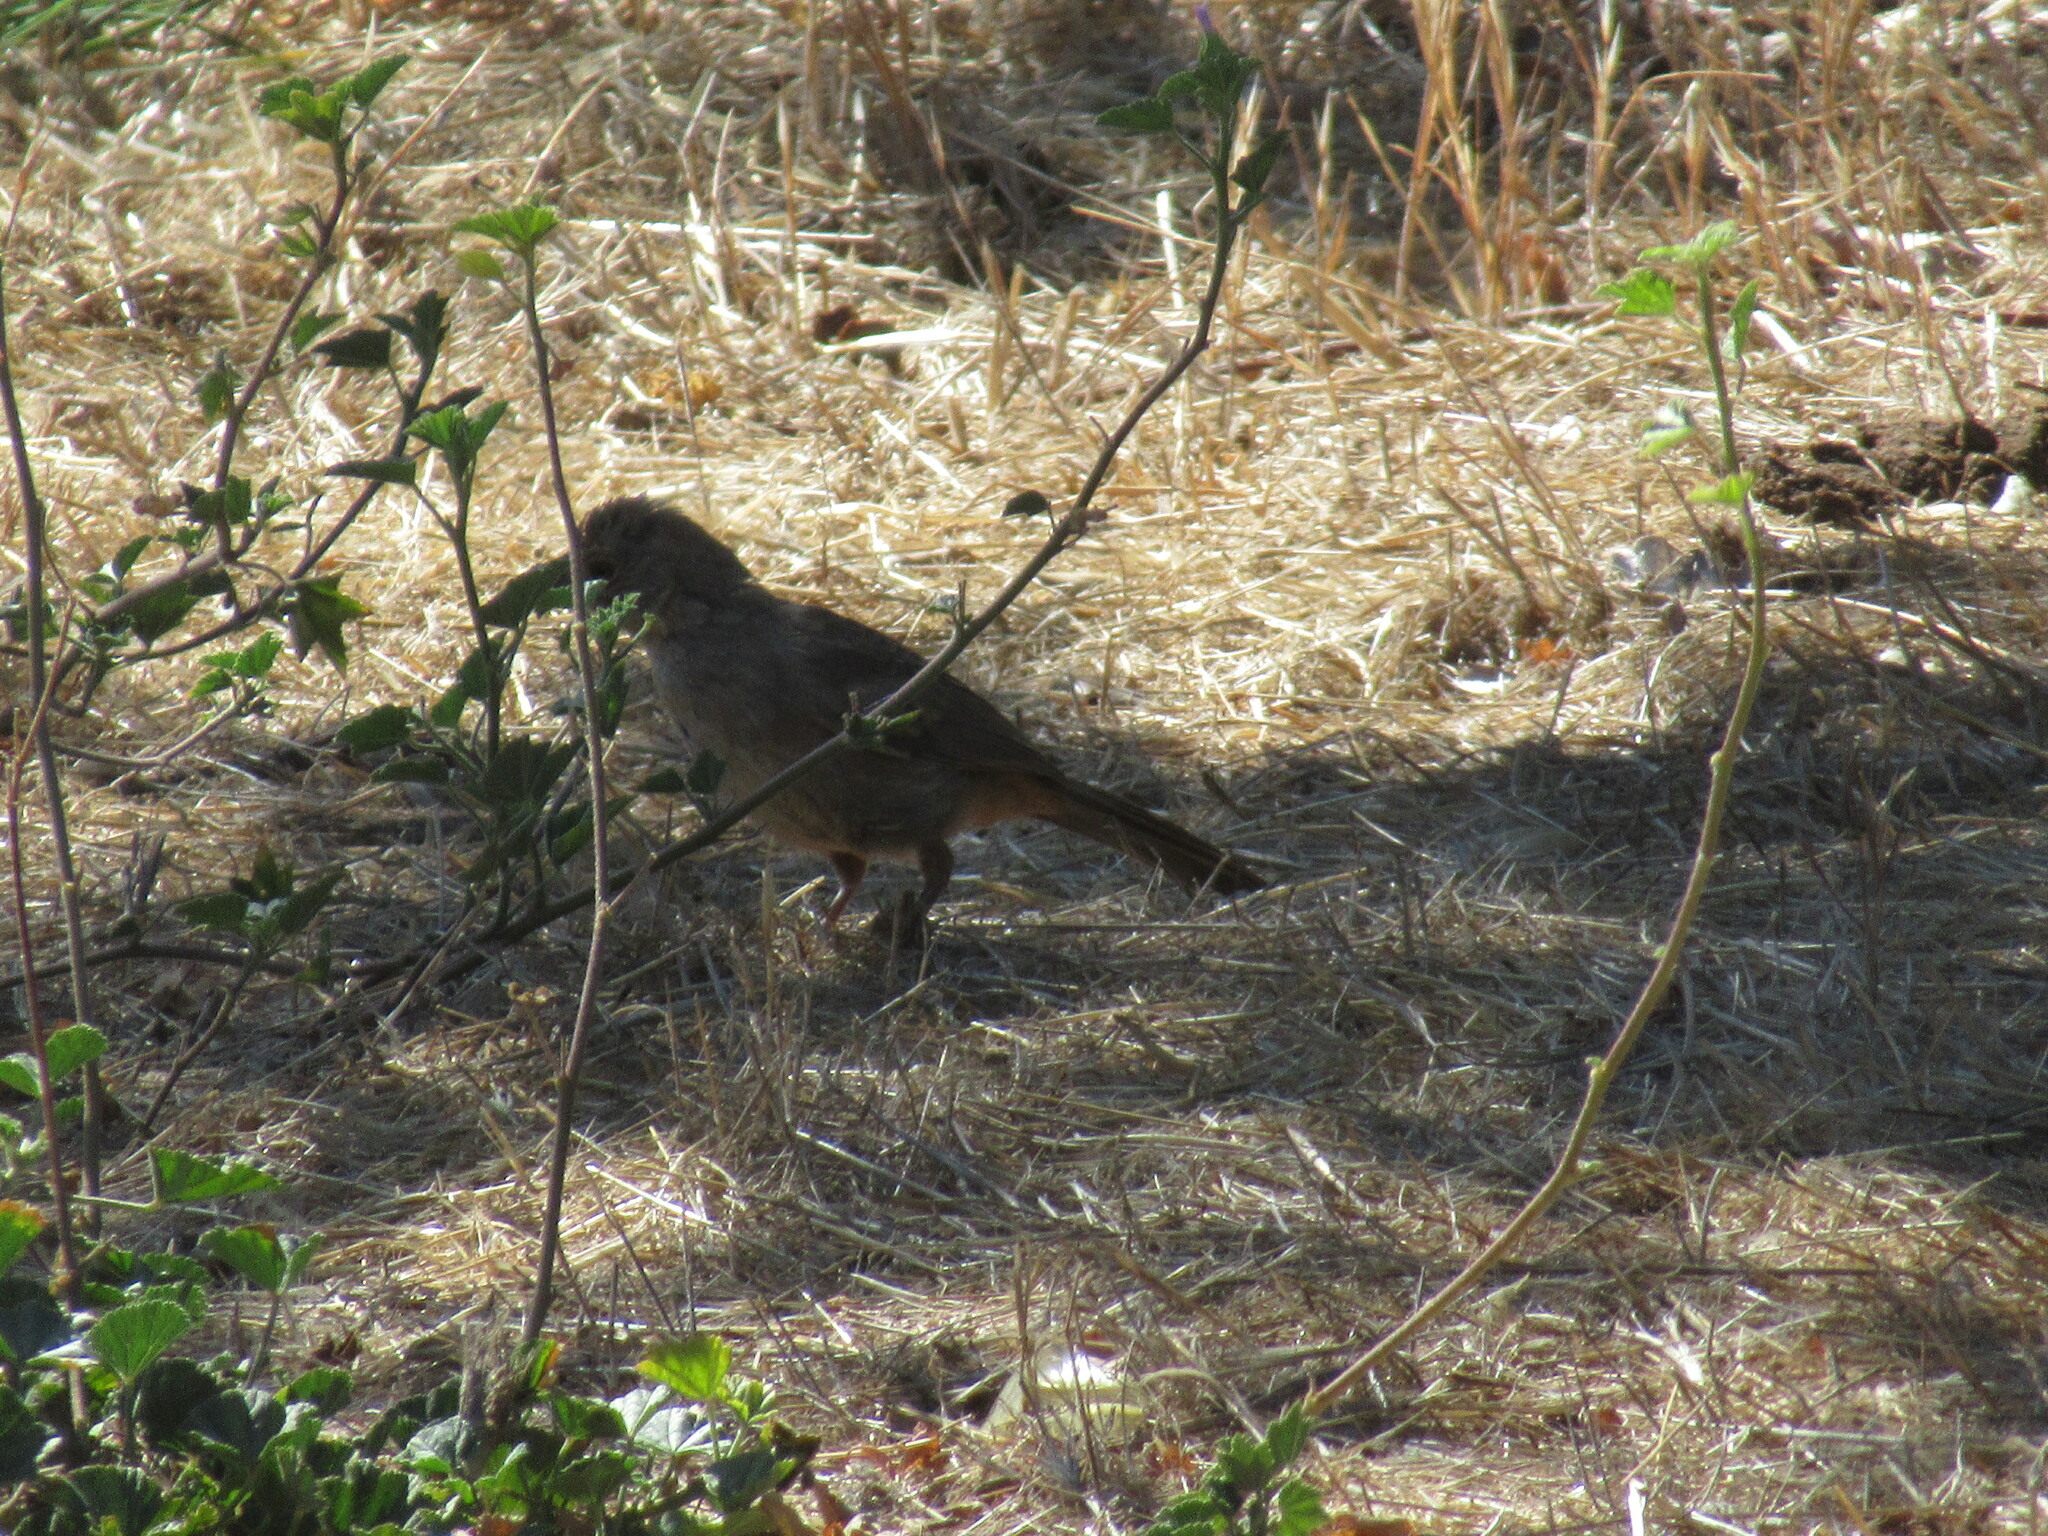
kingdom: Animalia
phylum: Chordata
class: Aves
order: Passeriformes
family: Passerellidae
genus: Melozone
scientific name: Melozone crissalis
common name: California towhee
